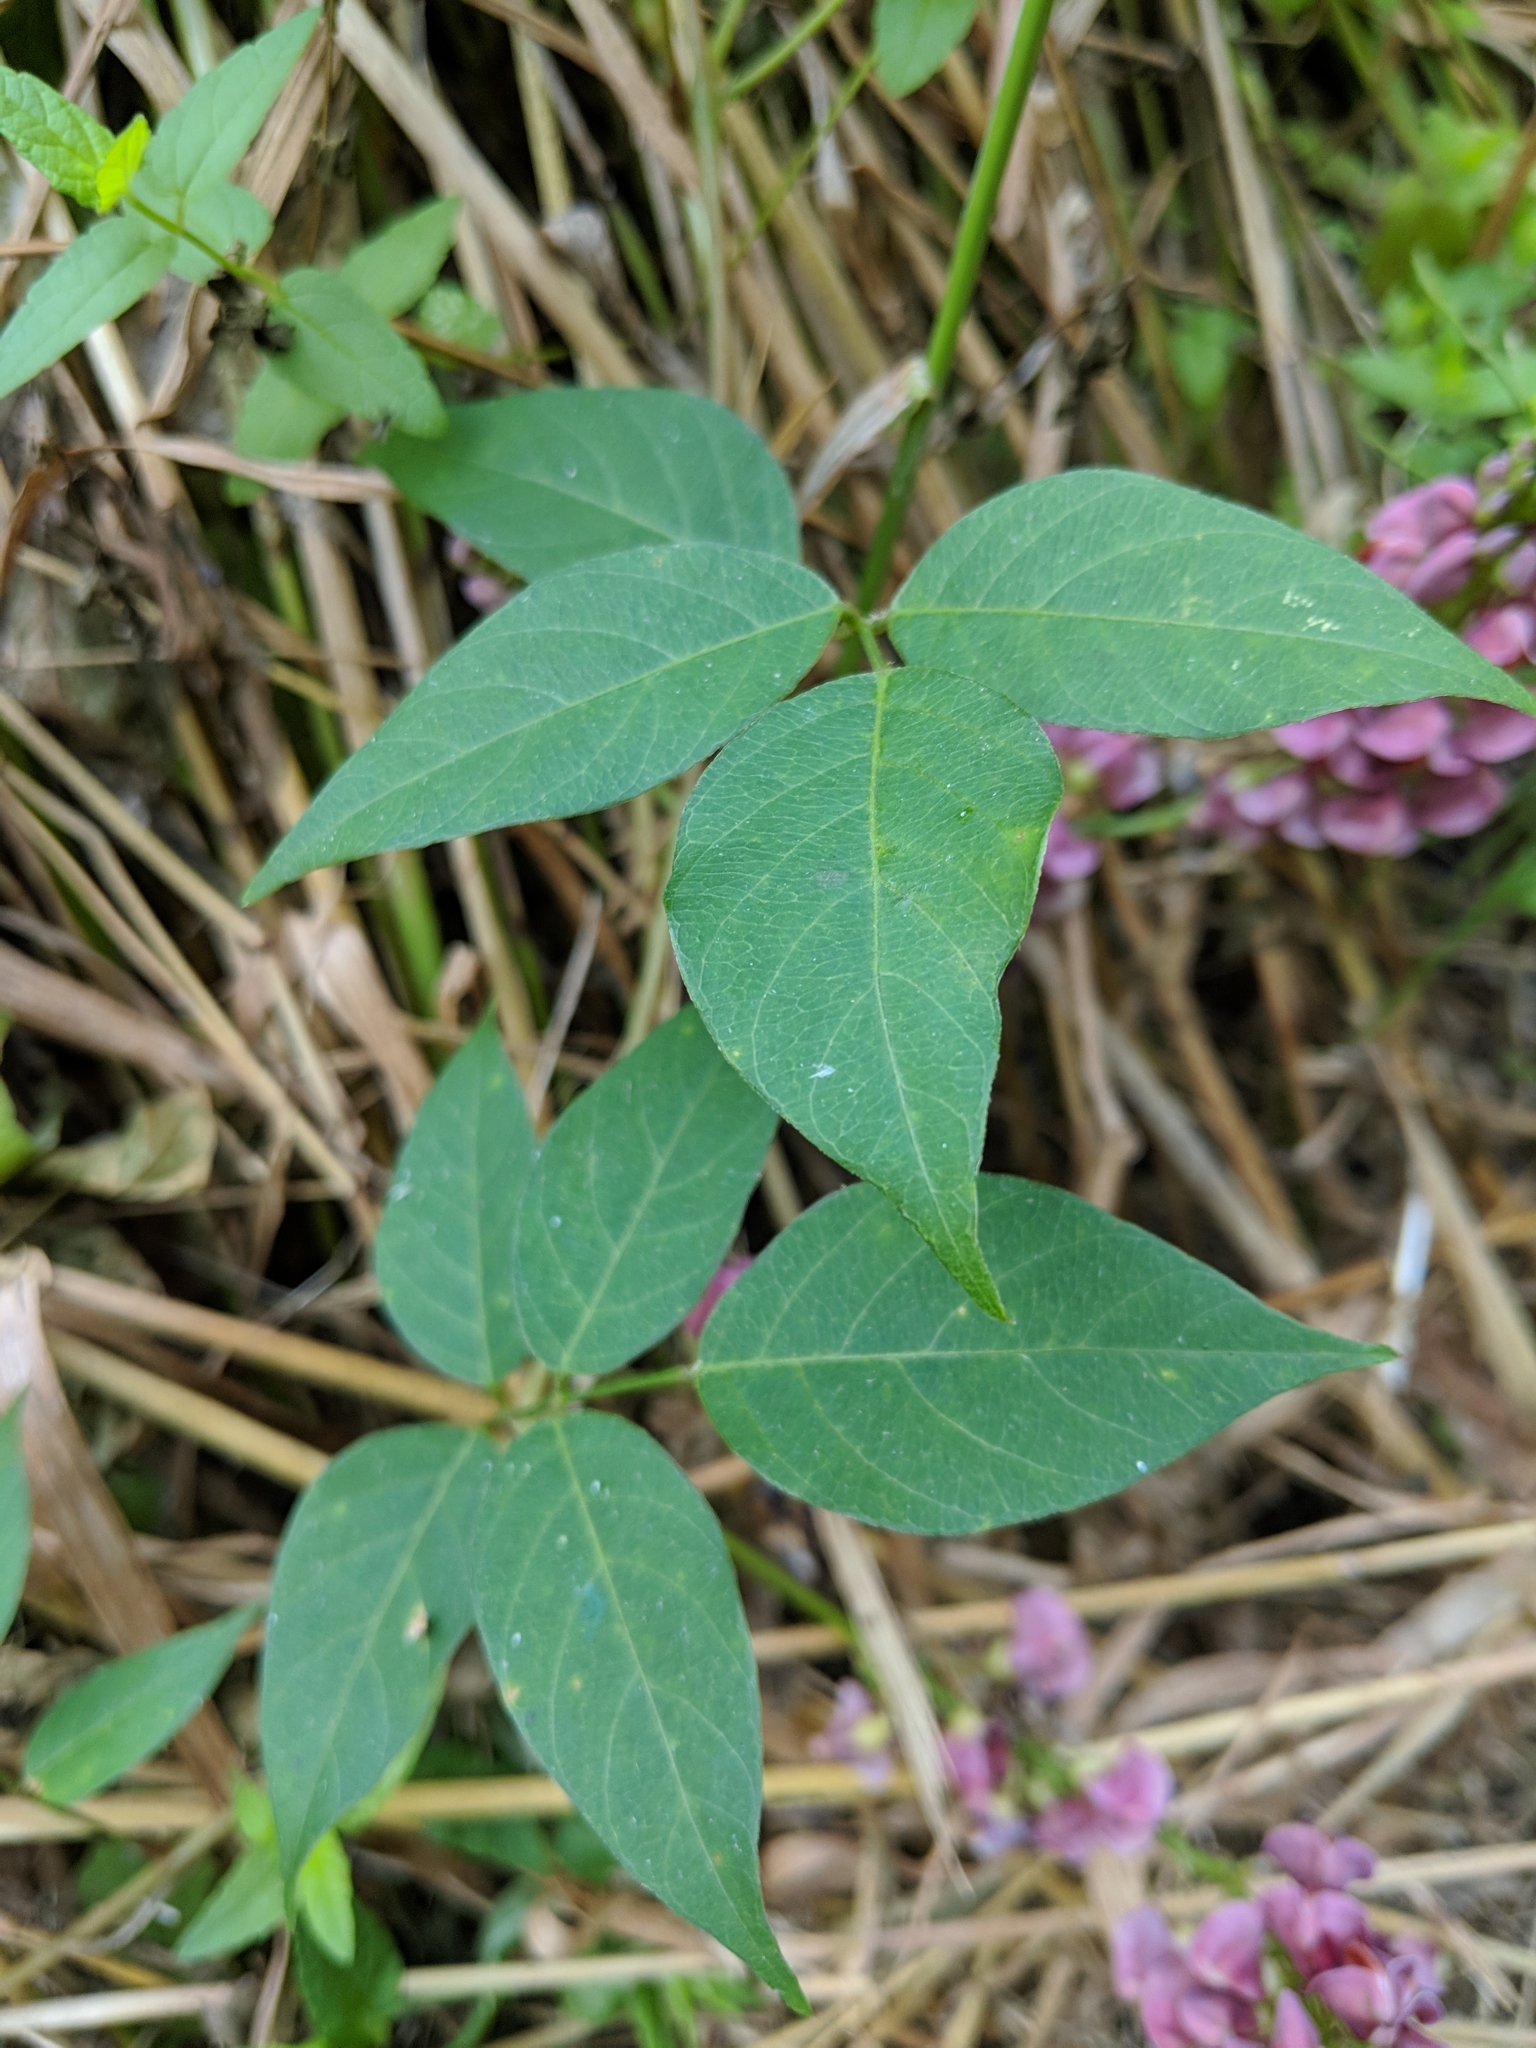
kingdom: Plantae
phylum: Tracheophyta
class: Magnoliopsida
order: Fabales
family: Fabaceae
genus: Apios
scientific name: Apios americana
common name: American potato-bean
